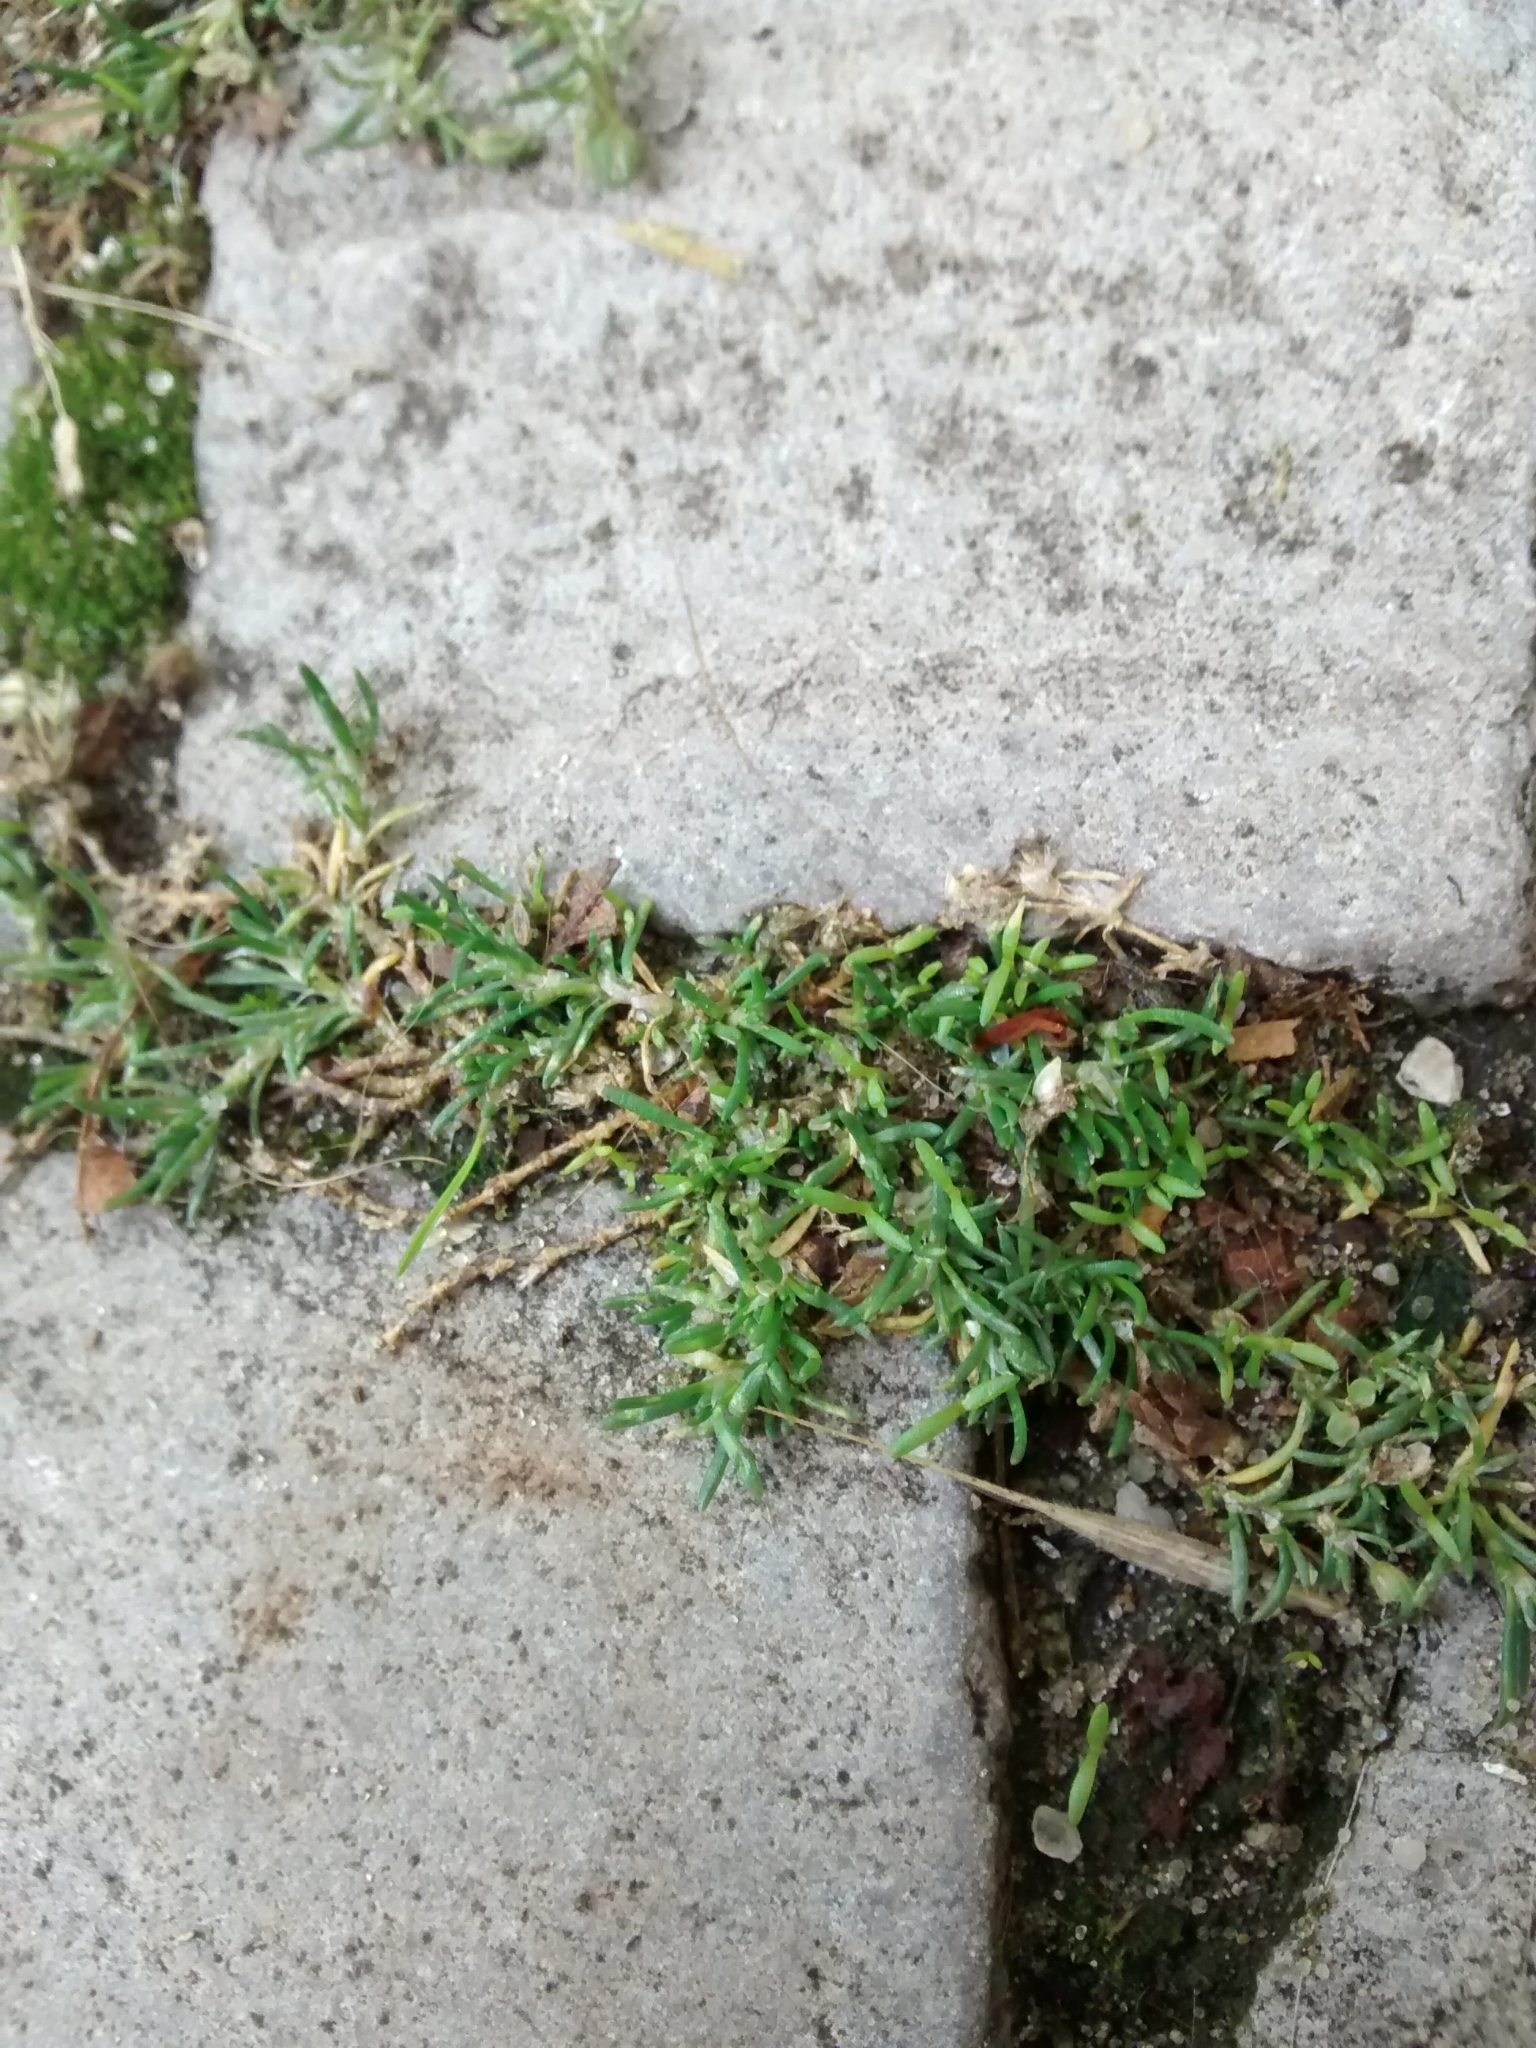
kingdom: Plantae
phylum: Tracheophyta
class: Magnoliopsida
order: Caryophyllales
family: Caryophyllaceae
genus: Sagina
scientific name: Sagina procumbens
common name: Procumbent pearlwort
